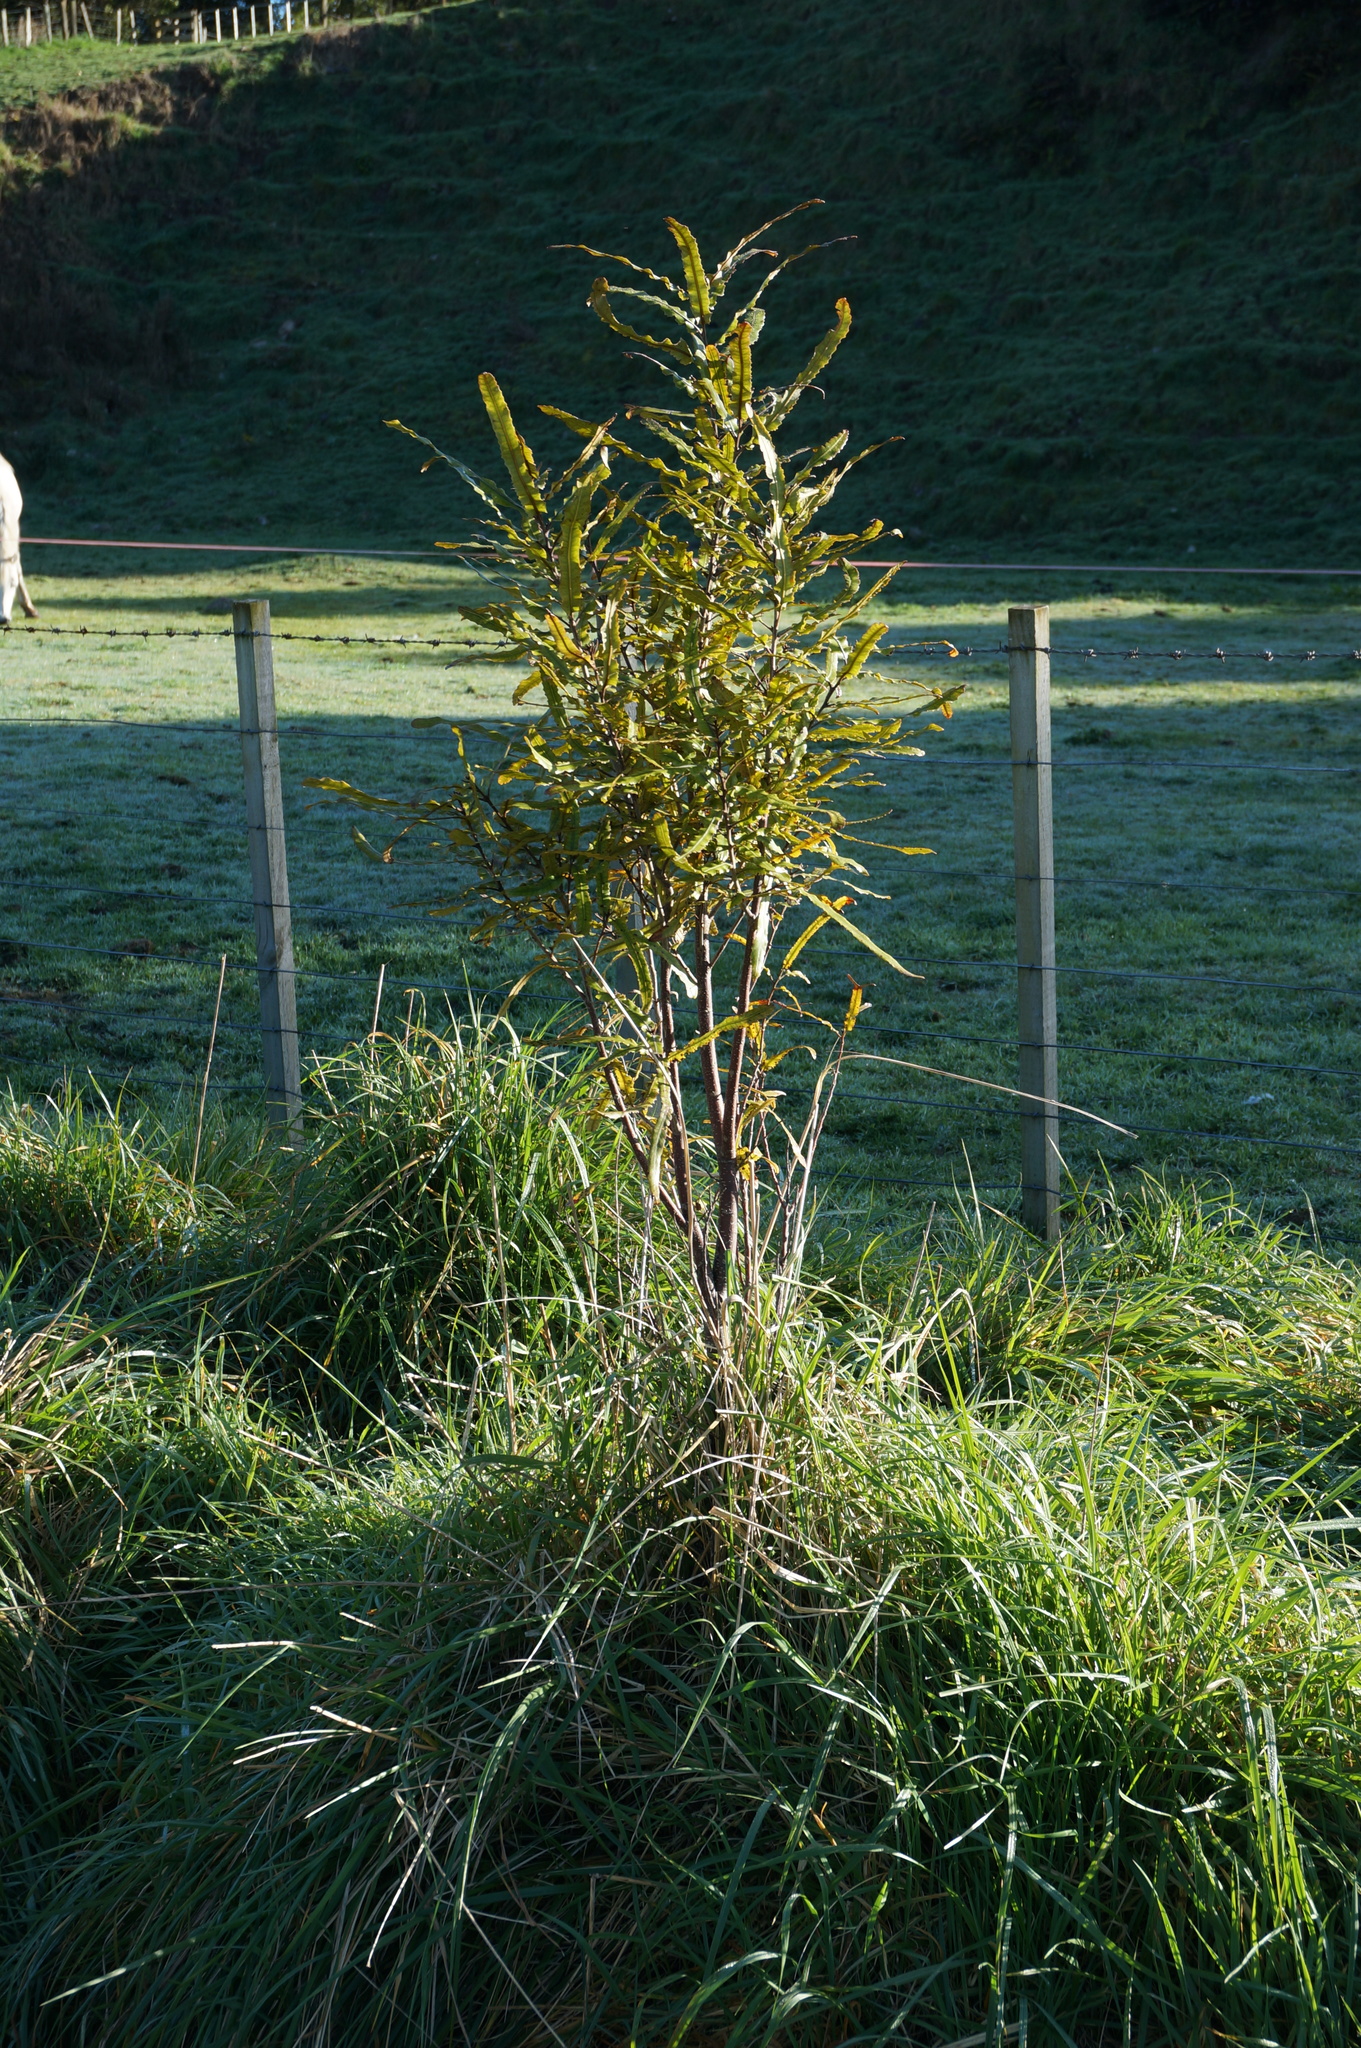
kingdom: Plantae
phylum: Tracheophyta
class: Magnoliopsida
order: Proteales
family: Proteaceae
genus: Knightia
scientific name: Knightia excelsa
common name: New zealand-honeysuckle
